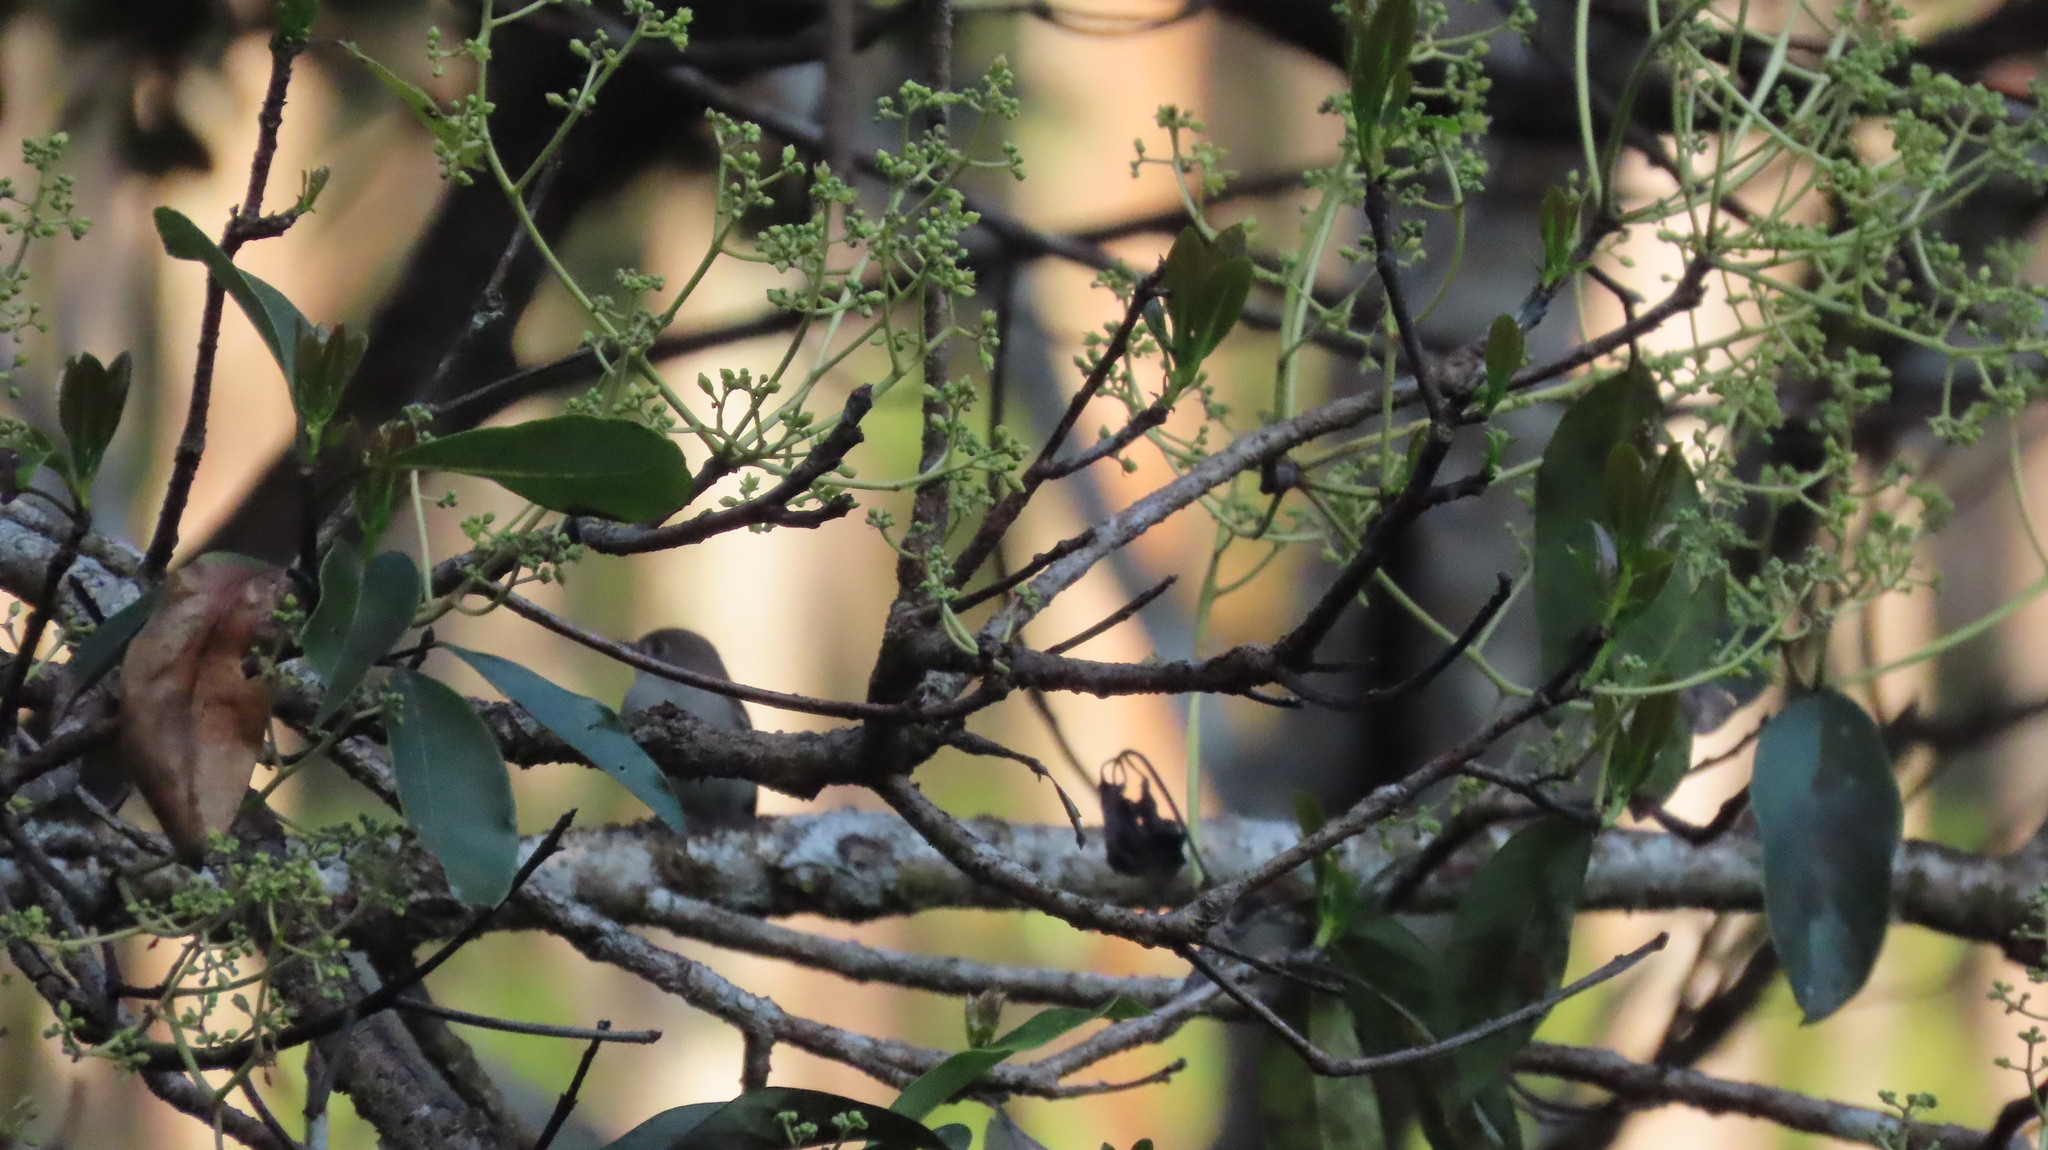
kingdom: Animalia
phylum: Chordata
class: Aves
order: Passeriformes
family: Muscicapidae
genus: Muscicapa
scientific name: Muscicapa latirostris
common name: Asian brown flycatcher
